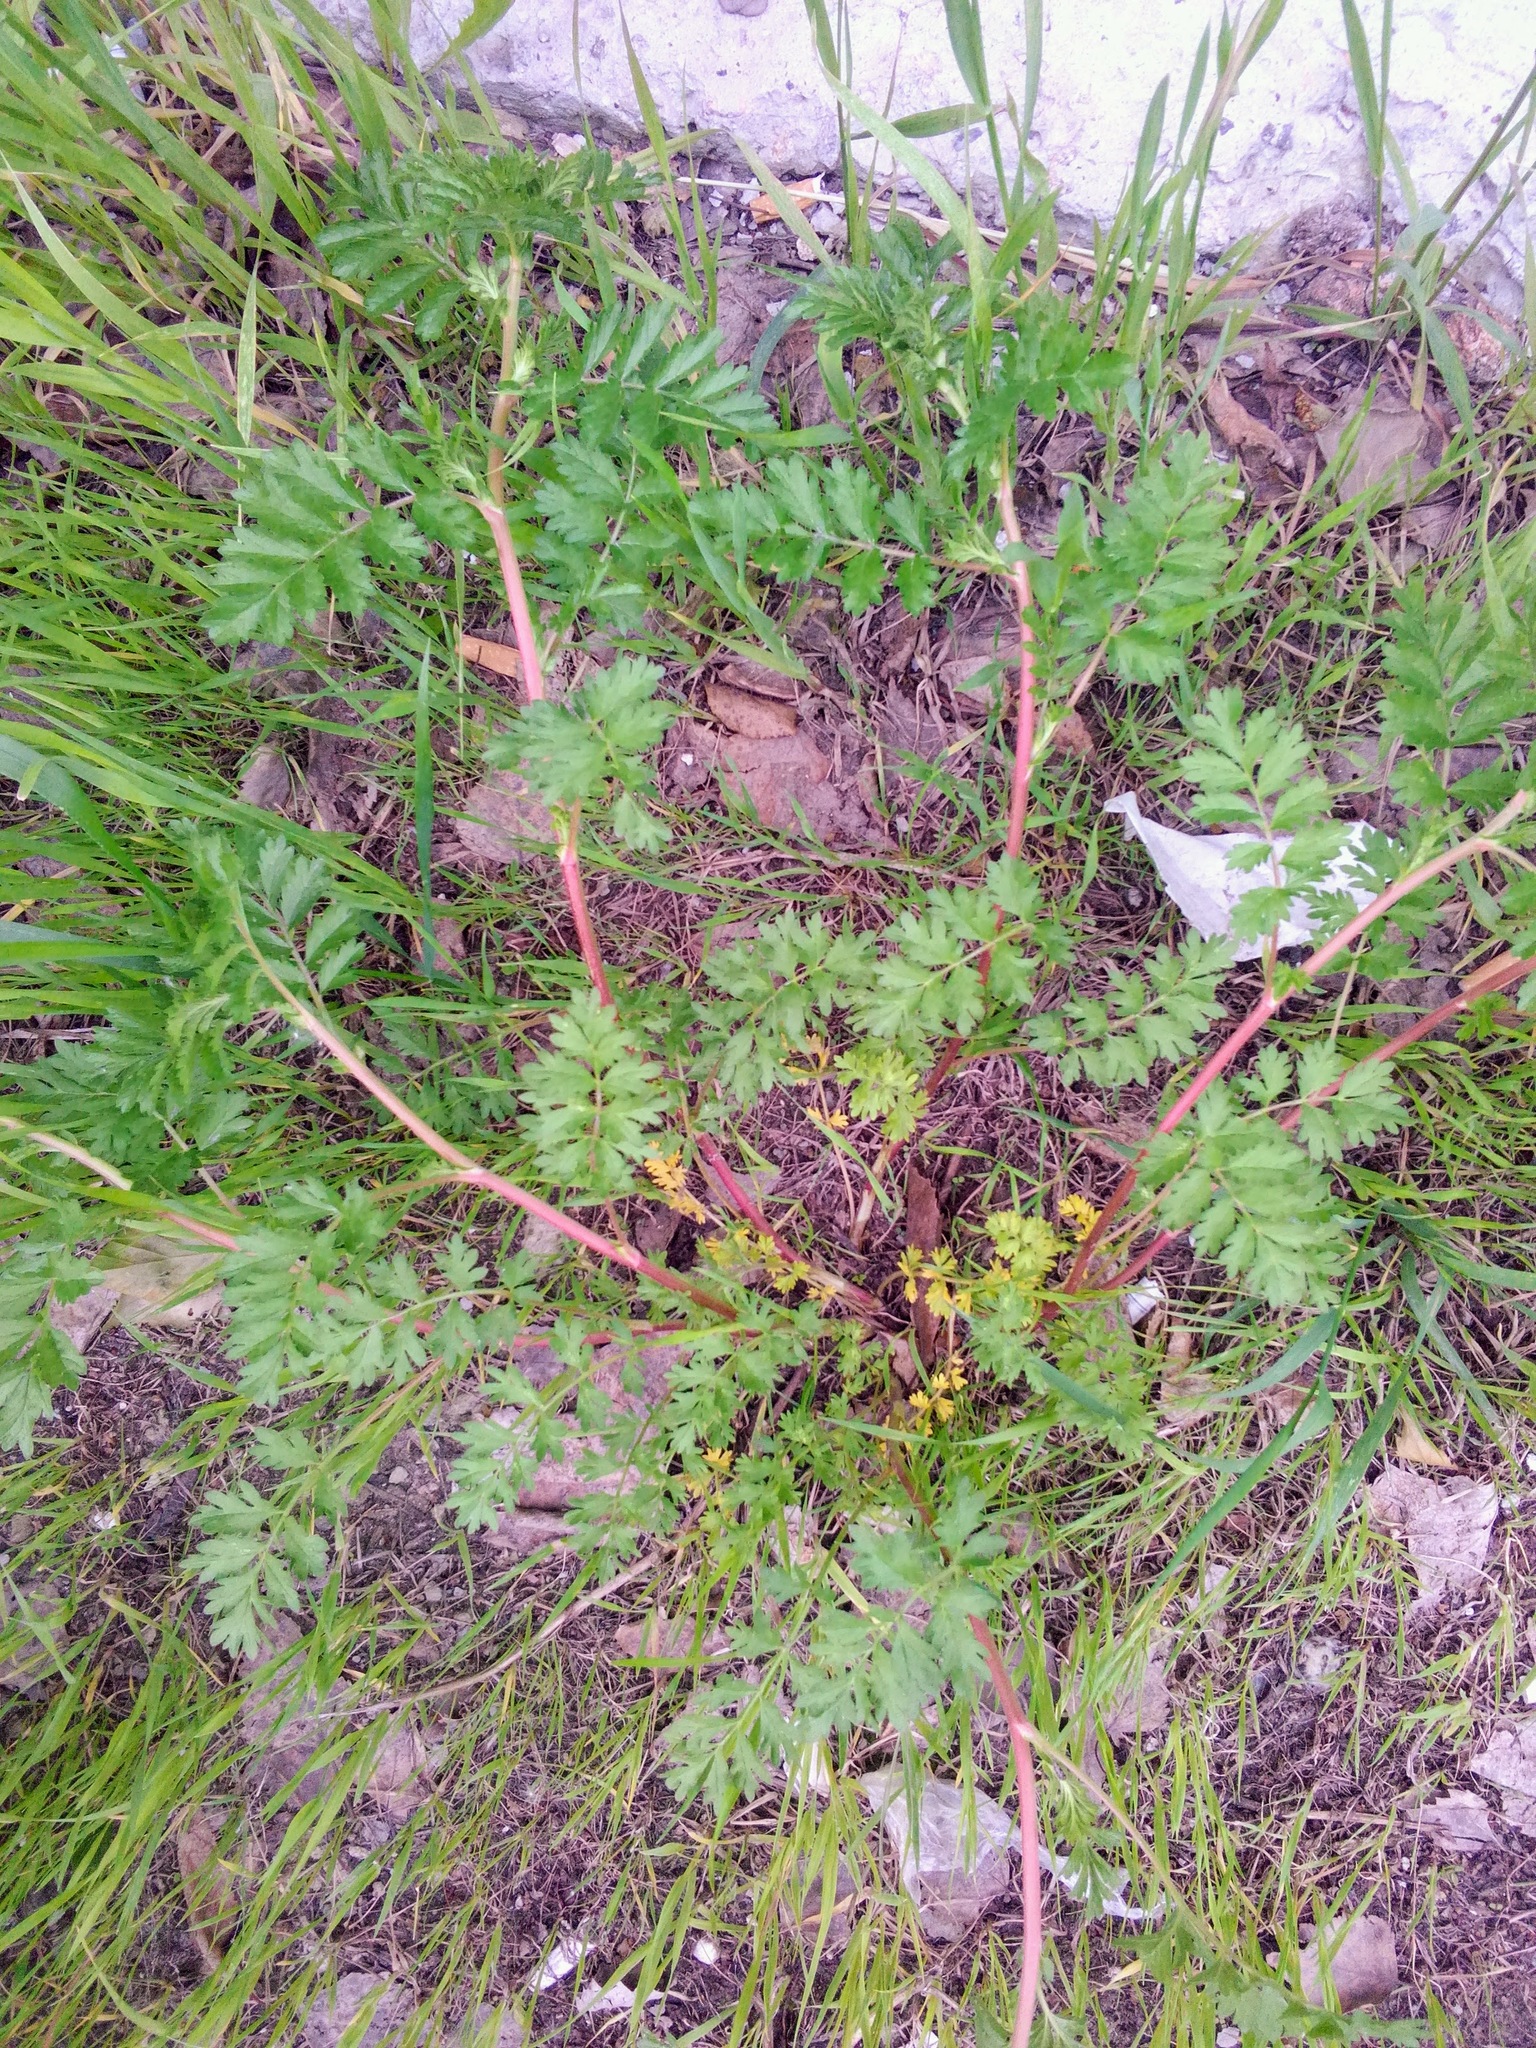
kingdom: Plantae
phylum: Tracheophyta
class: Magnoliopsida
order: Rosales
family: Rosaceae
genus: Potentilla
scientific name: Potentilla supina
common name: Prostrate cinquefoil
